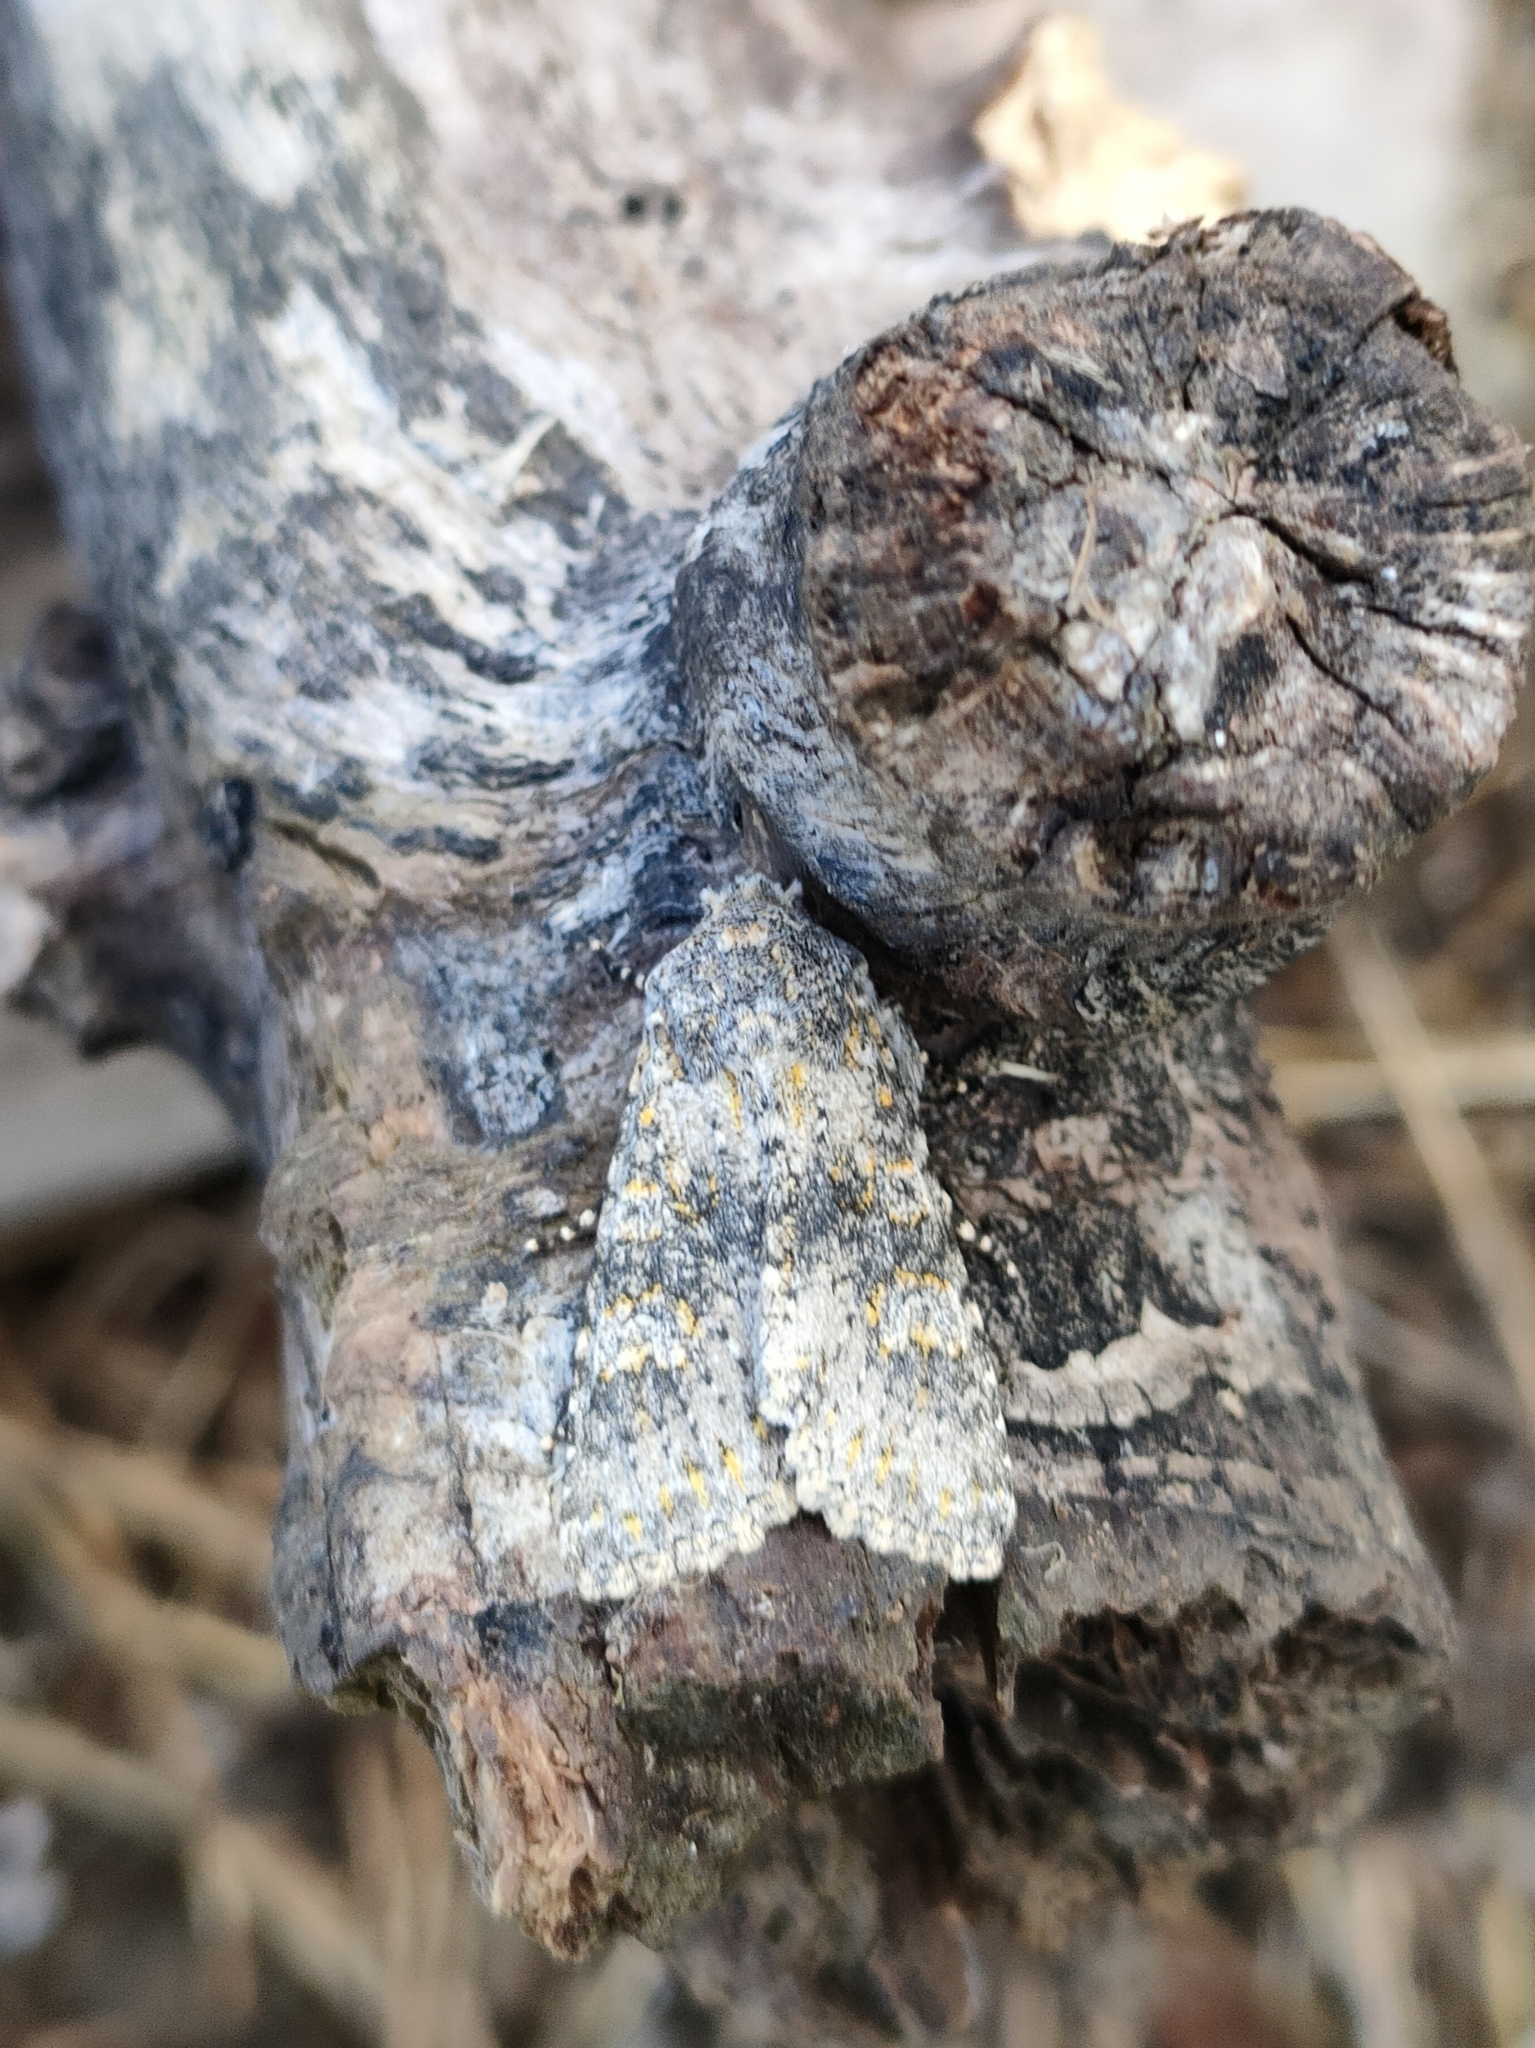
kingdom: Animalia
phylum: Arthropoda
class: Insecta
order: Lepidoptera
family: Noctuidae
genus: Polymixis
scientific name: Polymixis flavicincta
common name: Large ranunculus
